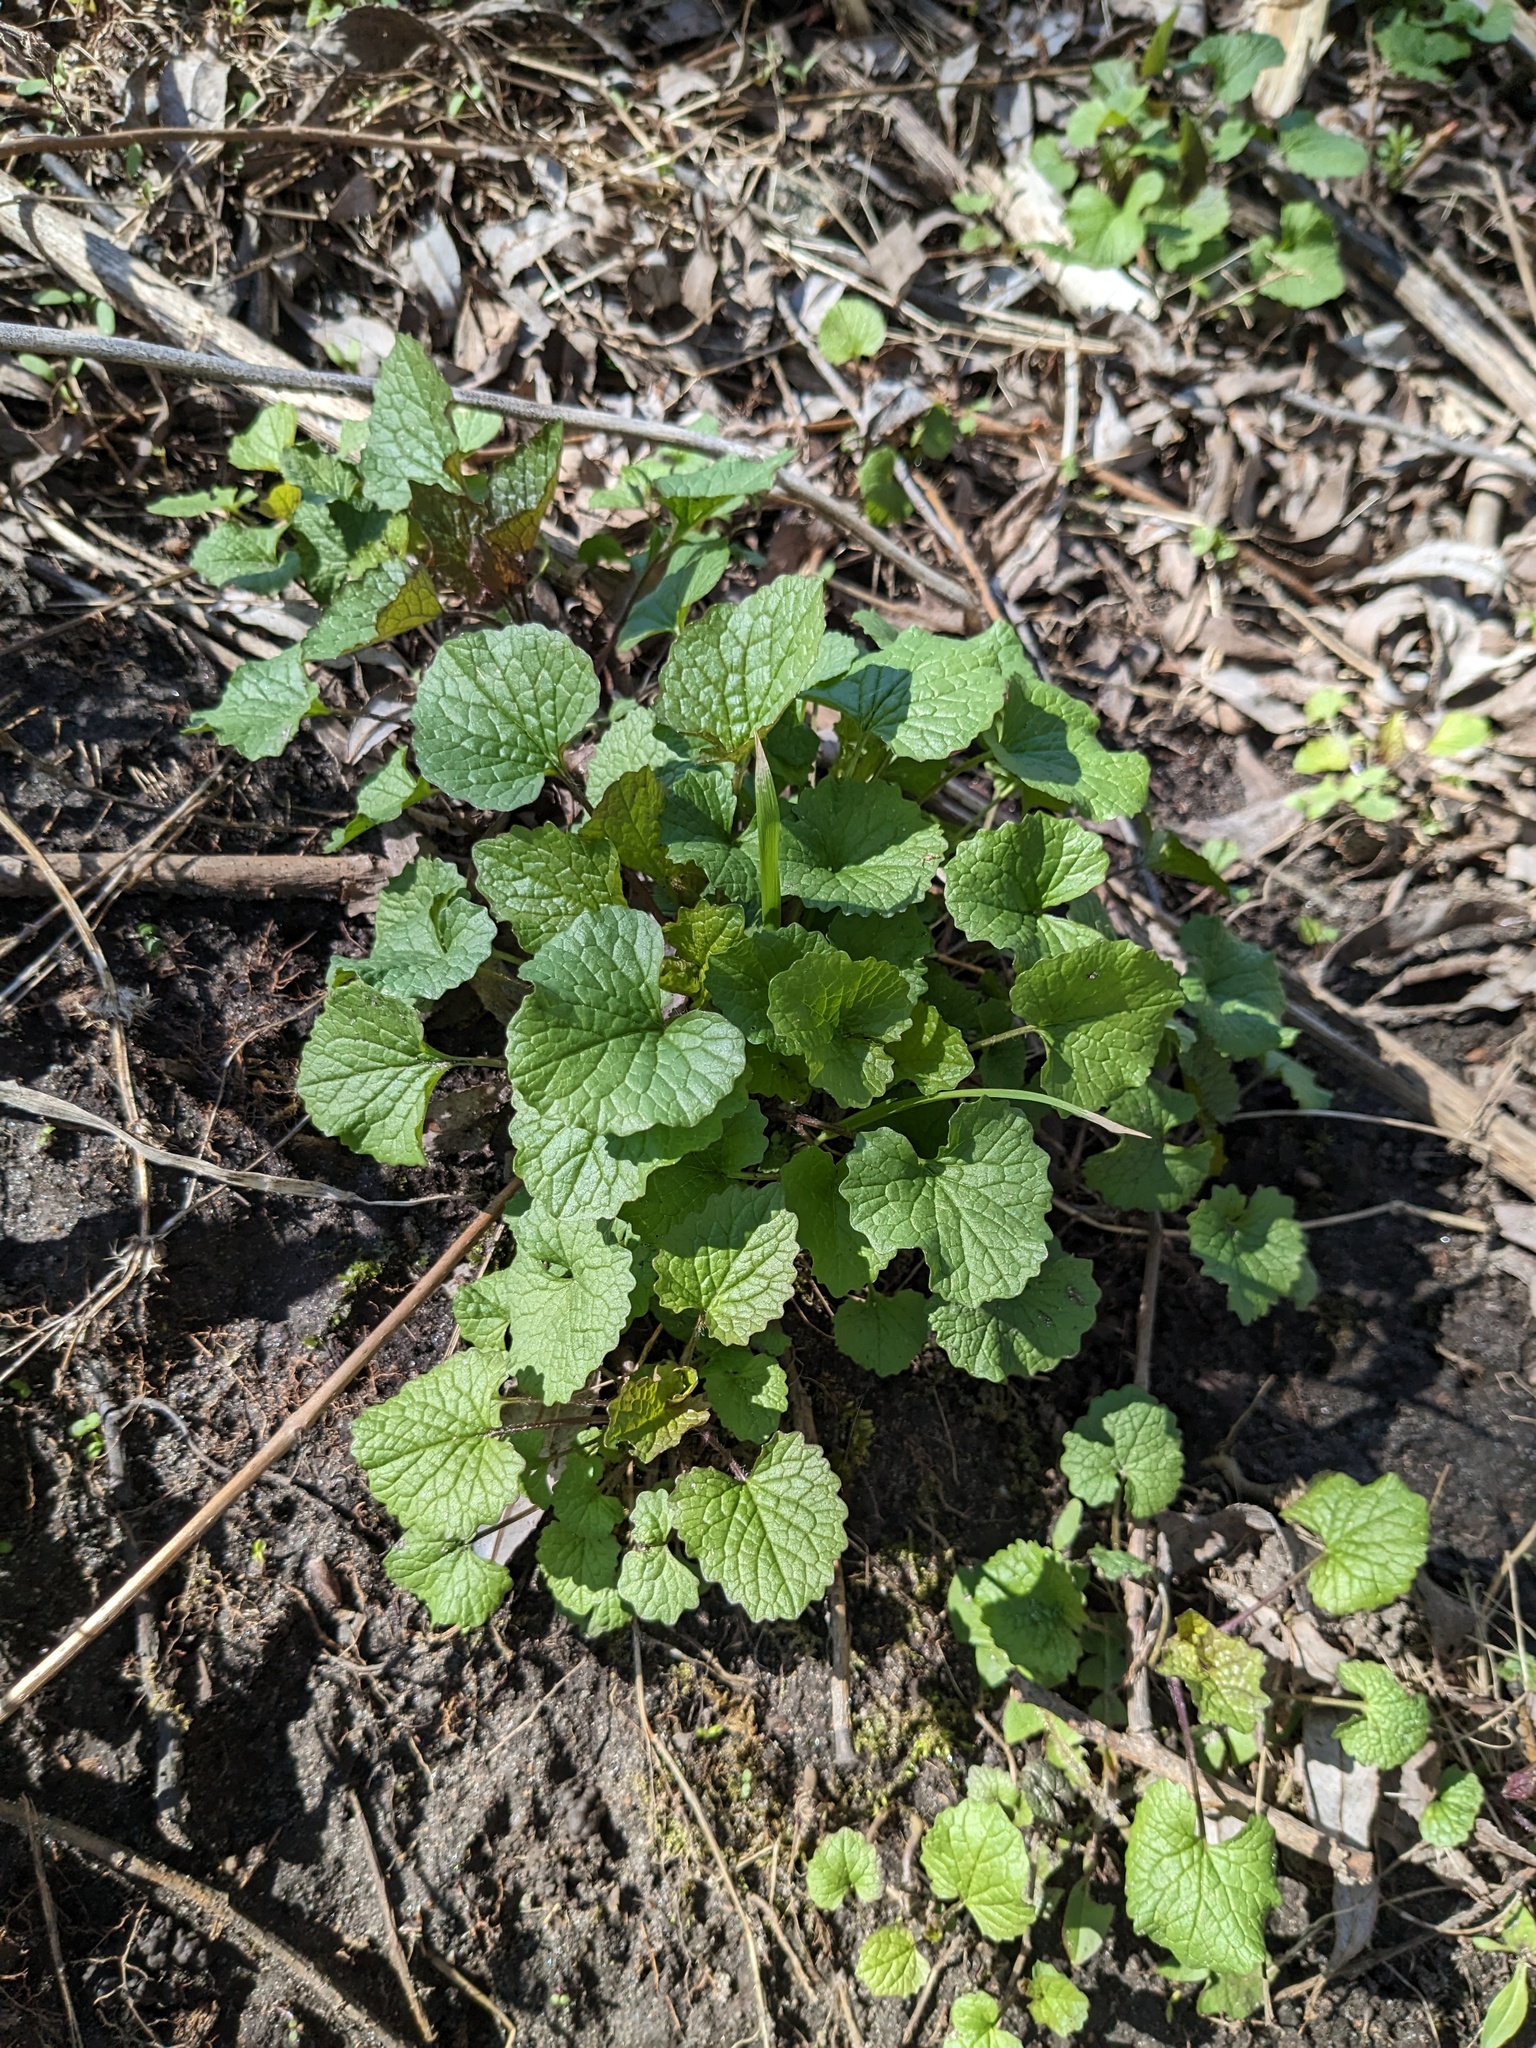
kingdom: Plantae
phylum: Tracheophyta
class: Magnoliopsida
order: Brassicales
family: Brassicaceae
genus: Alliaria
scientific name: Alliaria petiolata
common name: Garlic mustard
